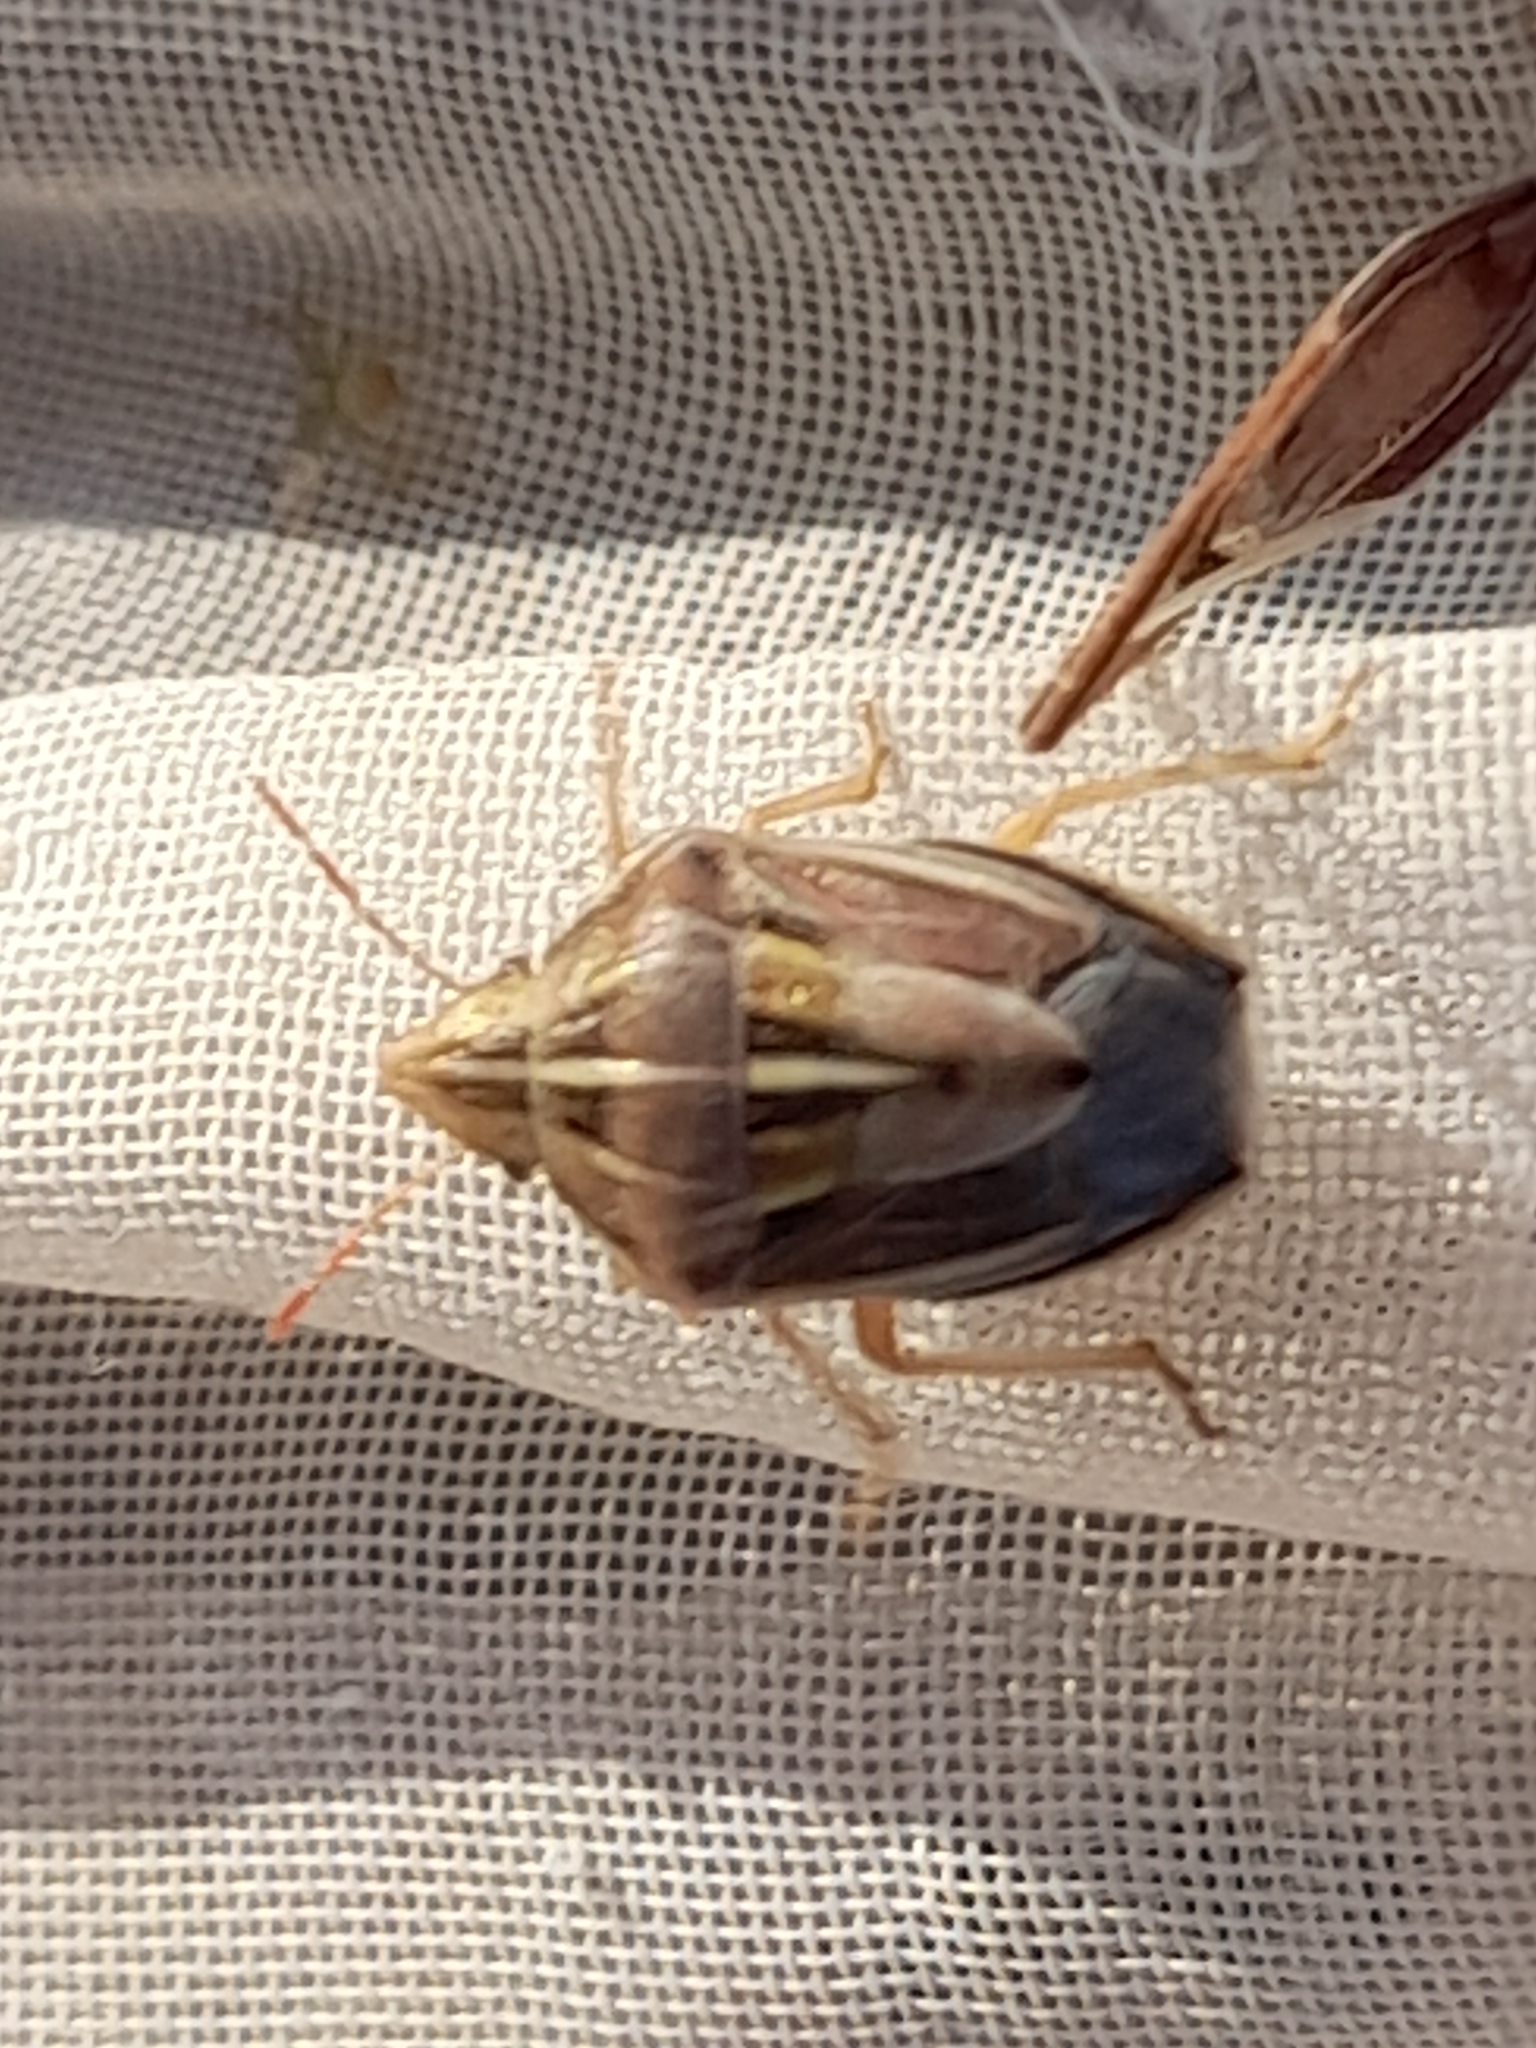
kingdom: Animalia
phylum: Arthropoda
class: Insecta
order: Hemiptera
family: Pentatomidae
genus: Aelia
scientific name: Aelia rostrata
